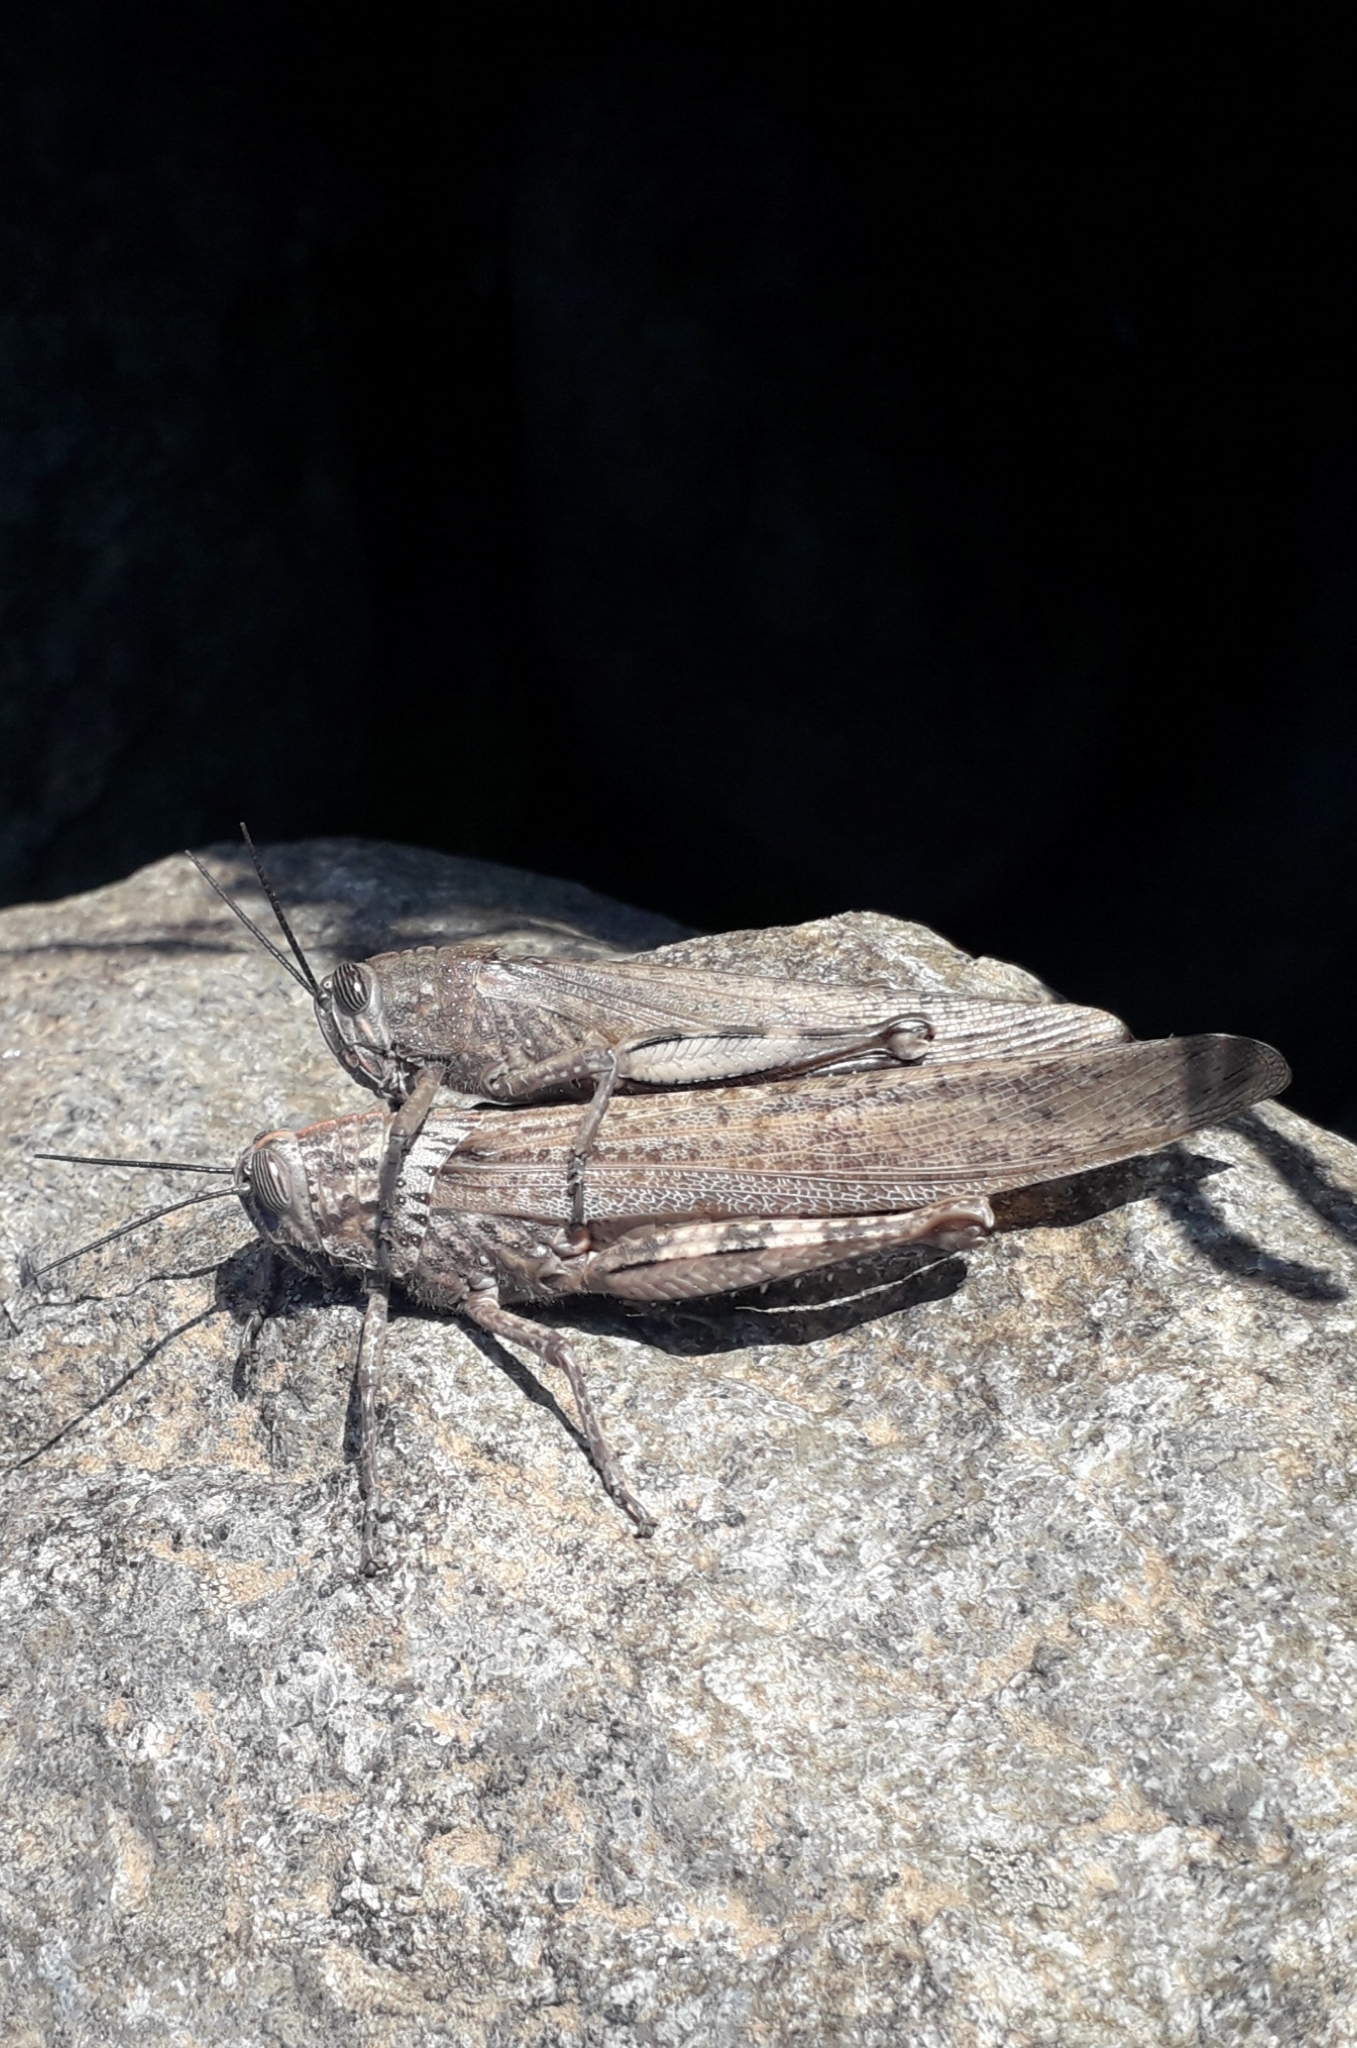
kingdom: Animalia
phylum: Arthropoda
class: Insecta
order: Orthoptera
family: Acrididae
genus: Anacridium
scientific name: Anacridium aegyptium
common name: Egyptian grasshopper
